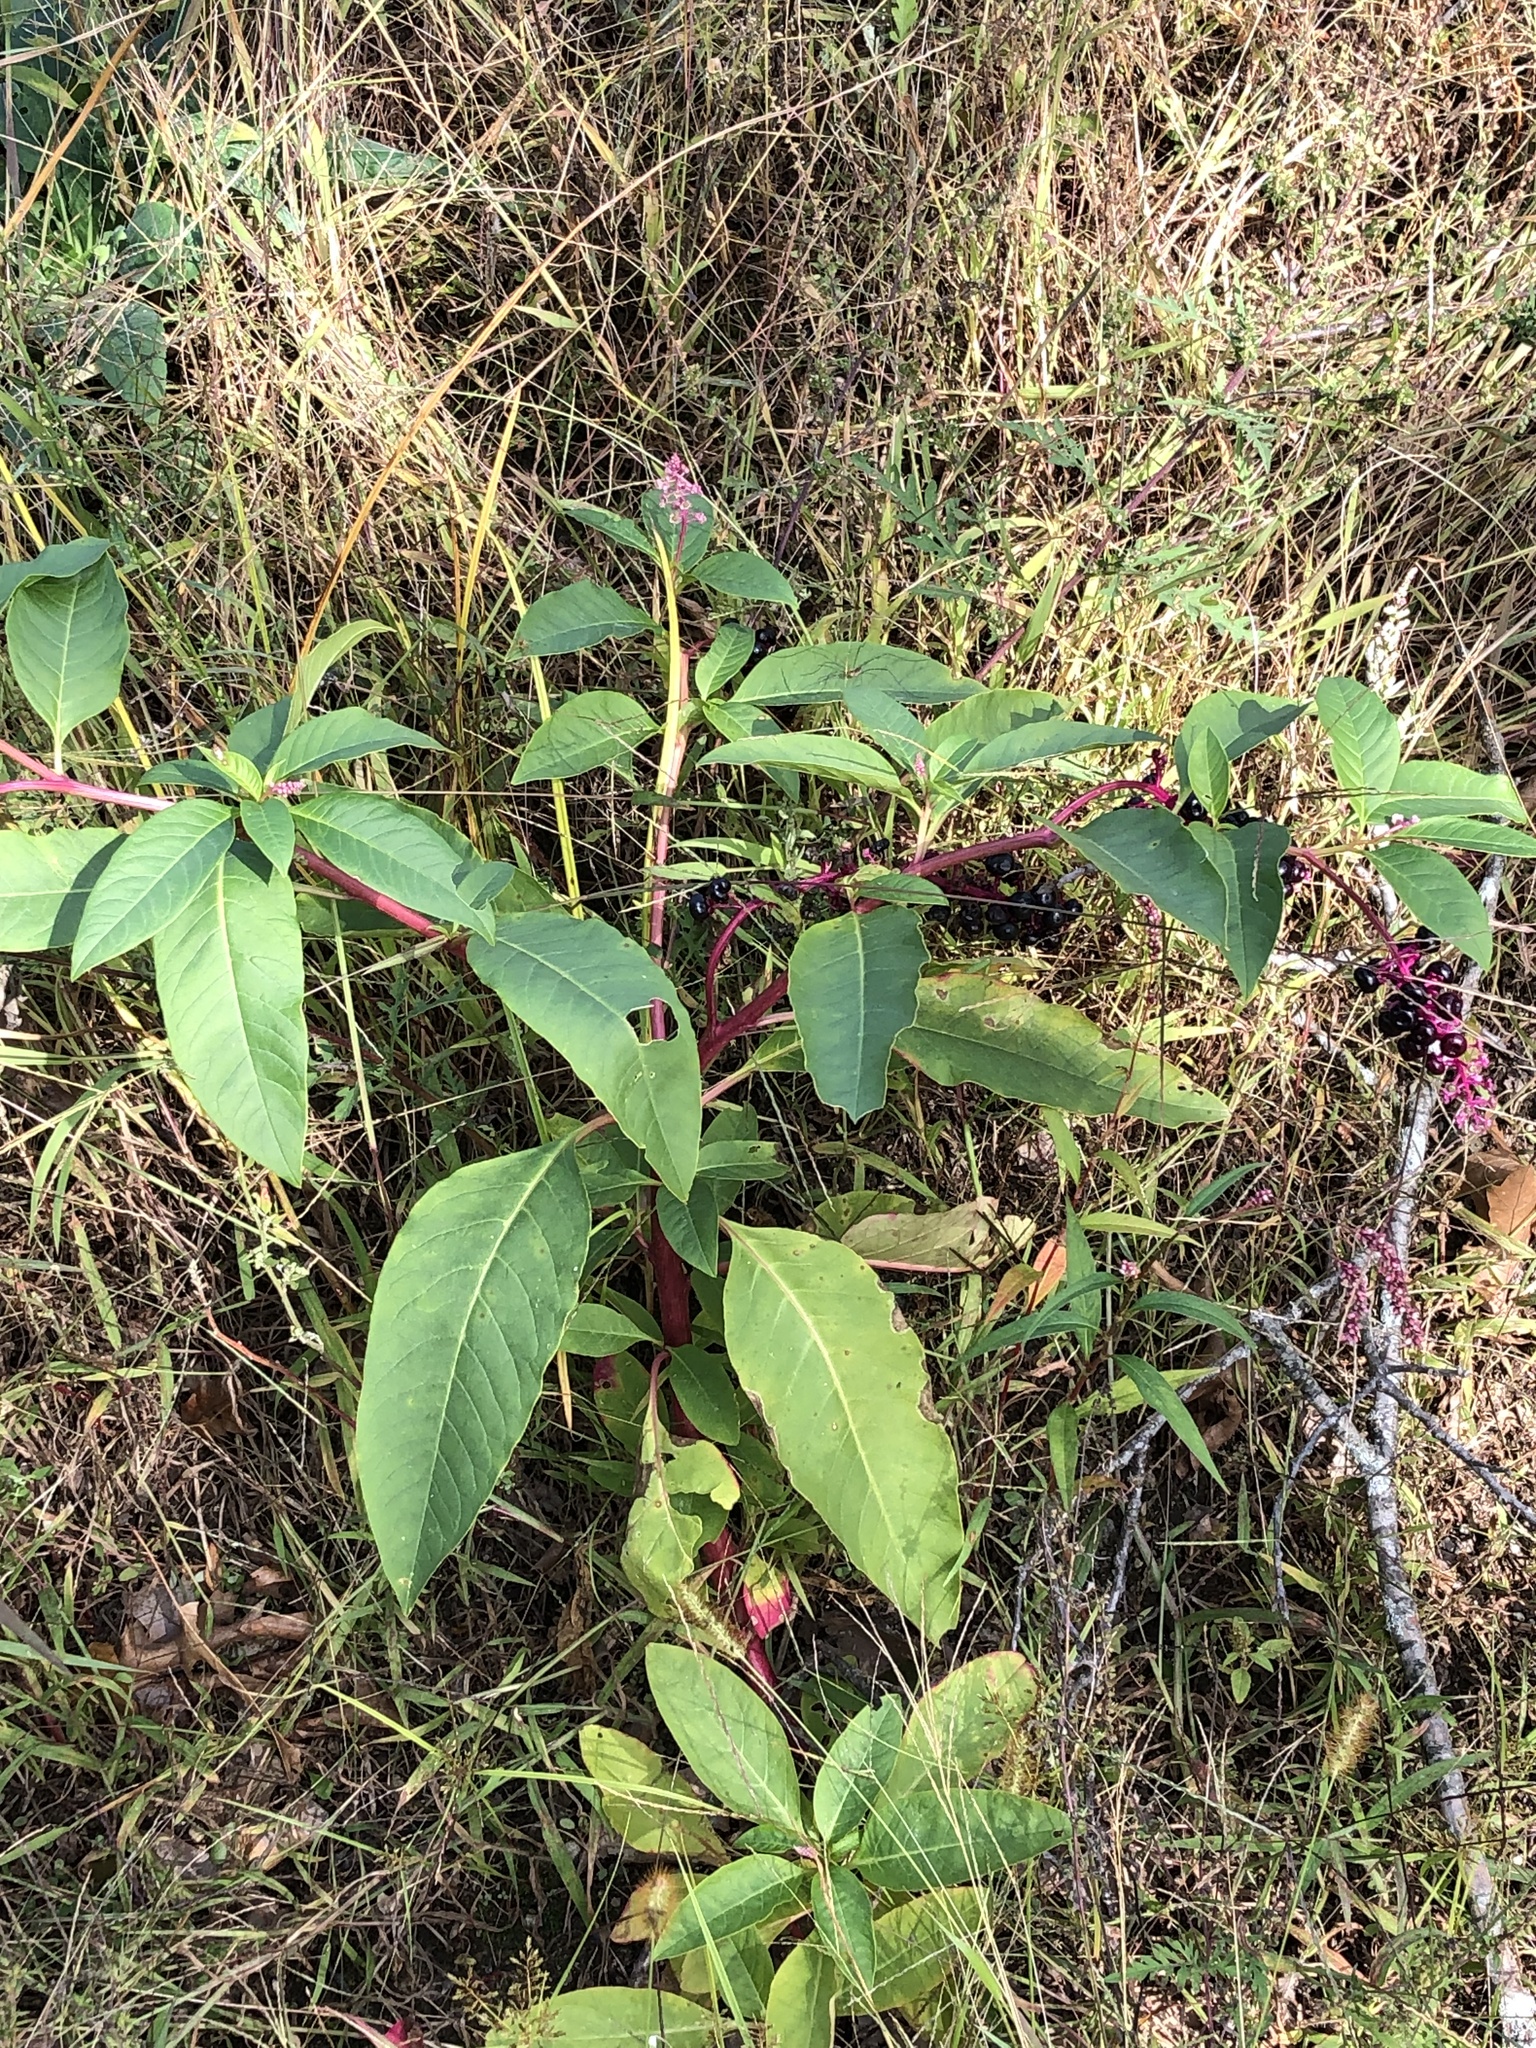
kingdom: Plantae
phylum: Tracheophyta
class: Magnoliopsida
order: Caryophyllales
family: Phytolaccaceae
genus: Phytolacca
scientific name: Phytolacca americana
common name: American pokeweed
